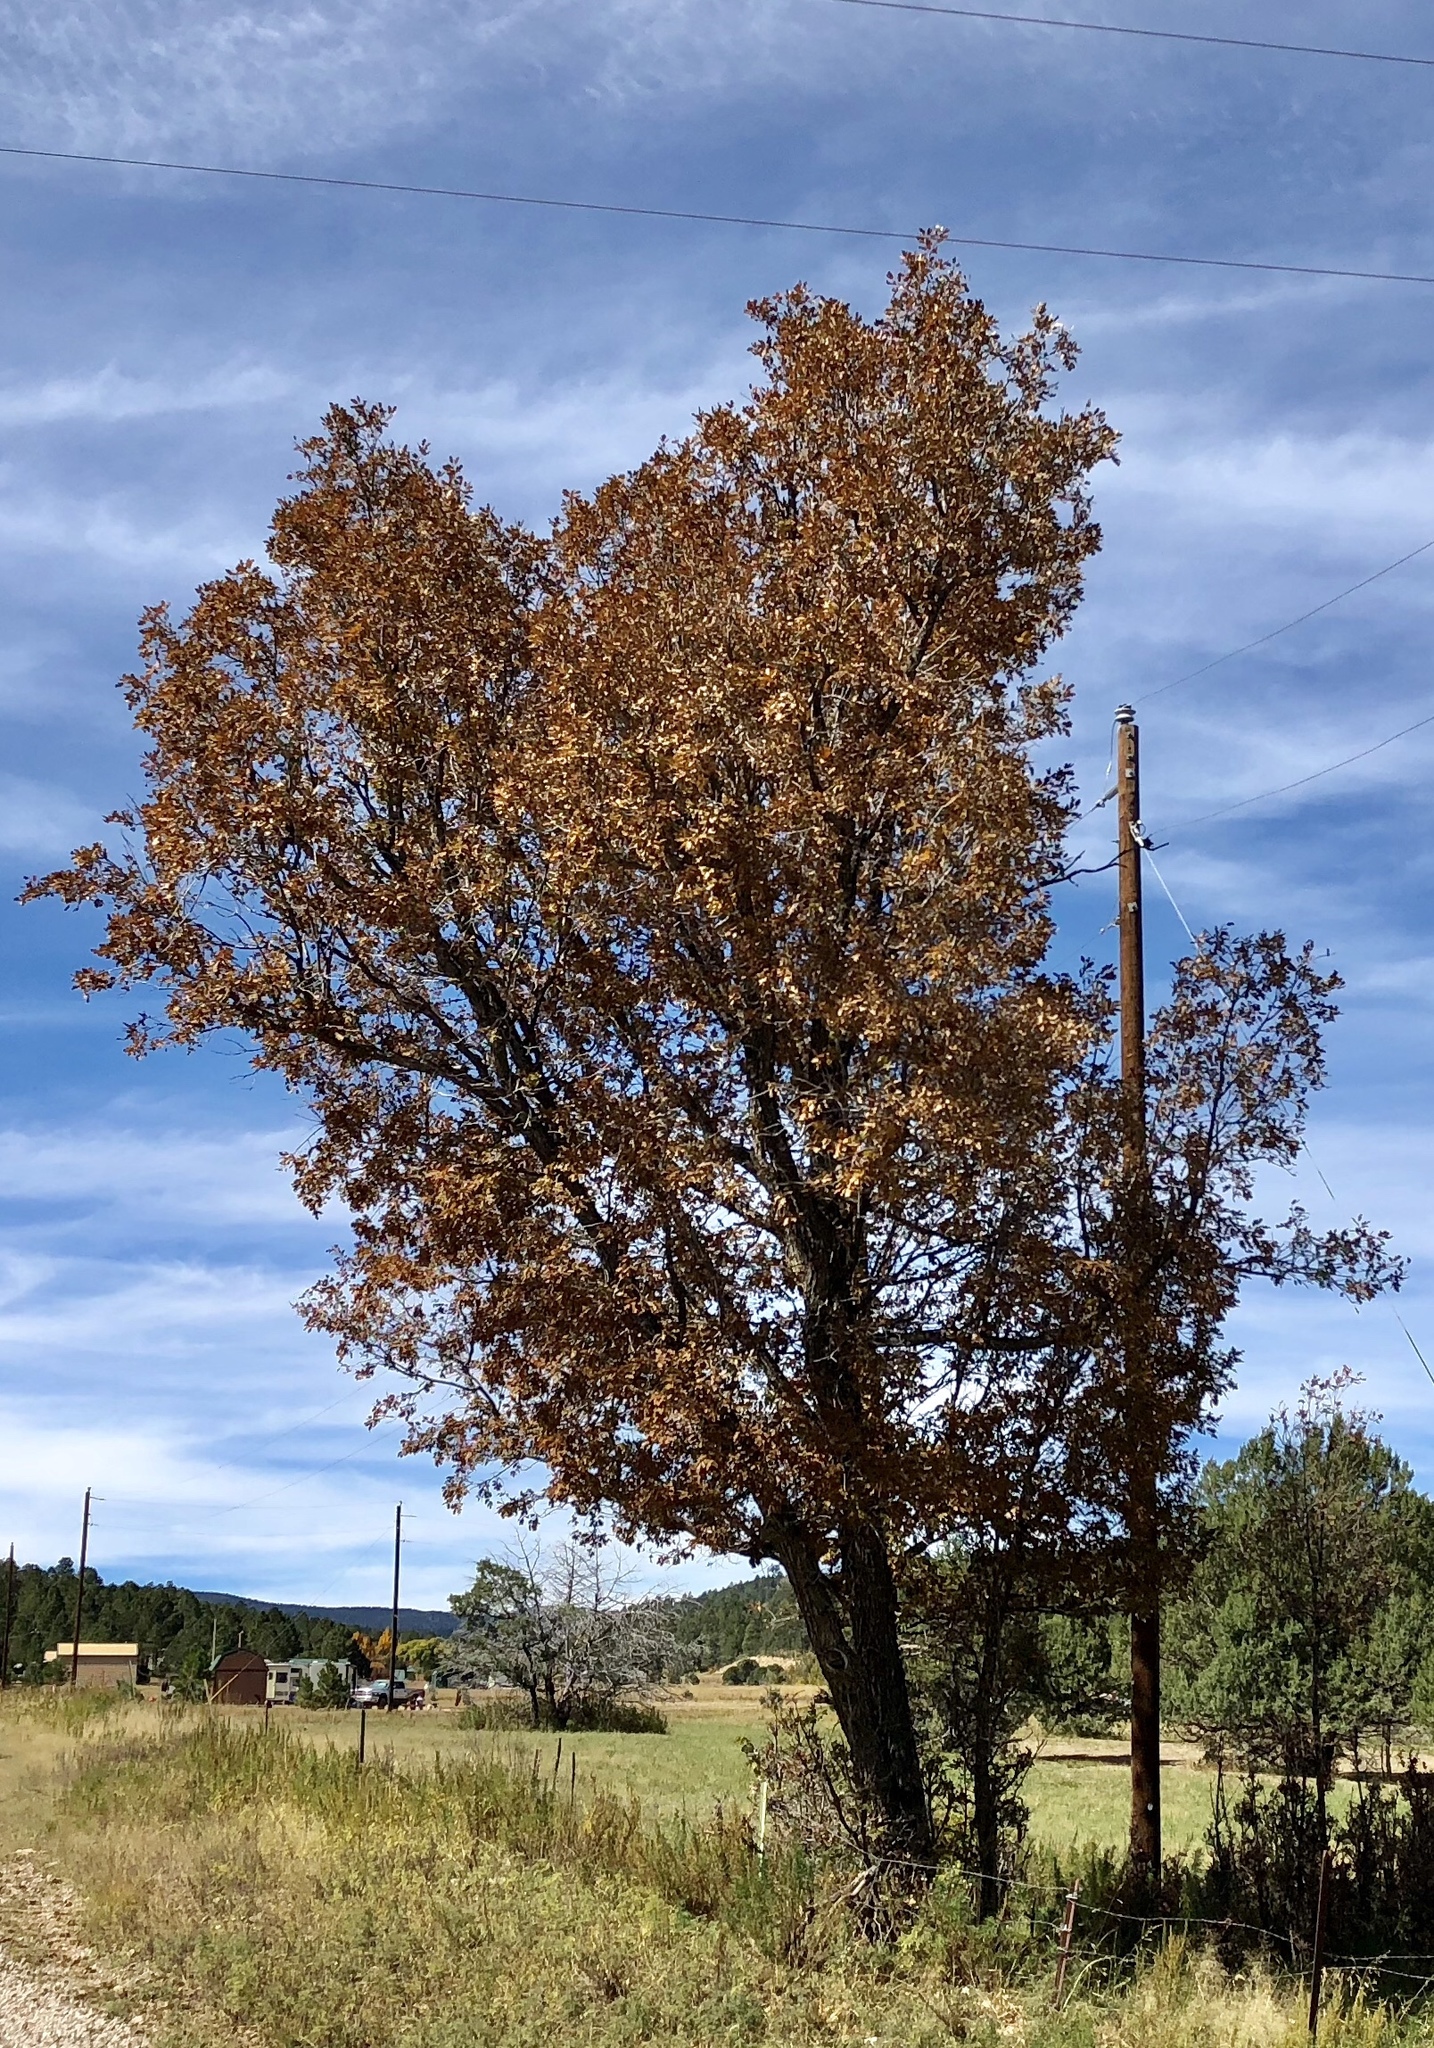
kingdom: Plantae
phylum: Tracheophyta
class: Magnoliopsida
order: Fagales
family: Fagaceae
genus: Quercus
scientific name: Quercus gambelii
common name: Gambel oak
